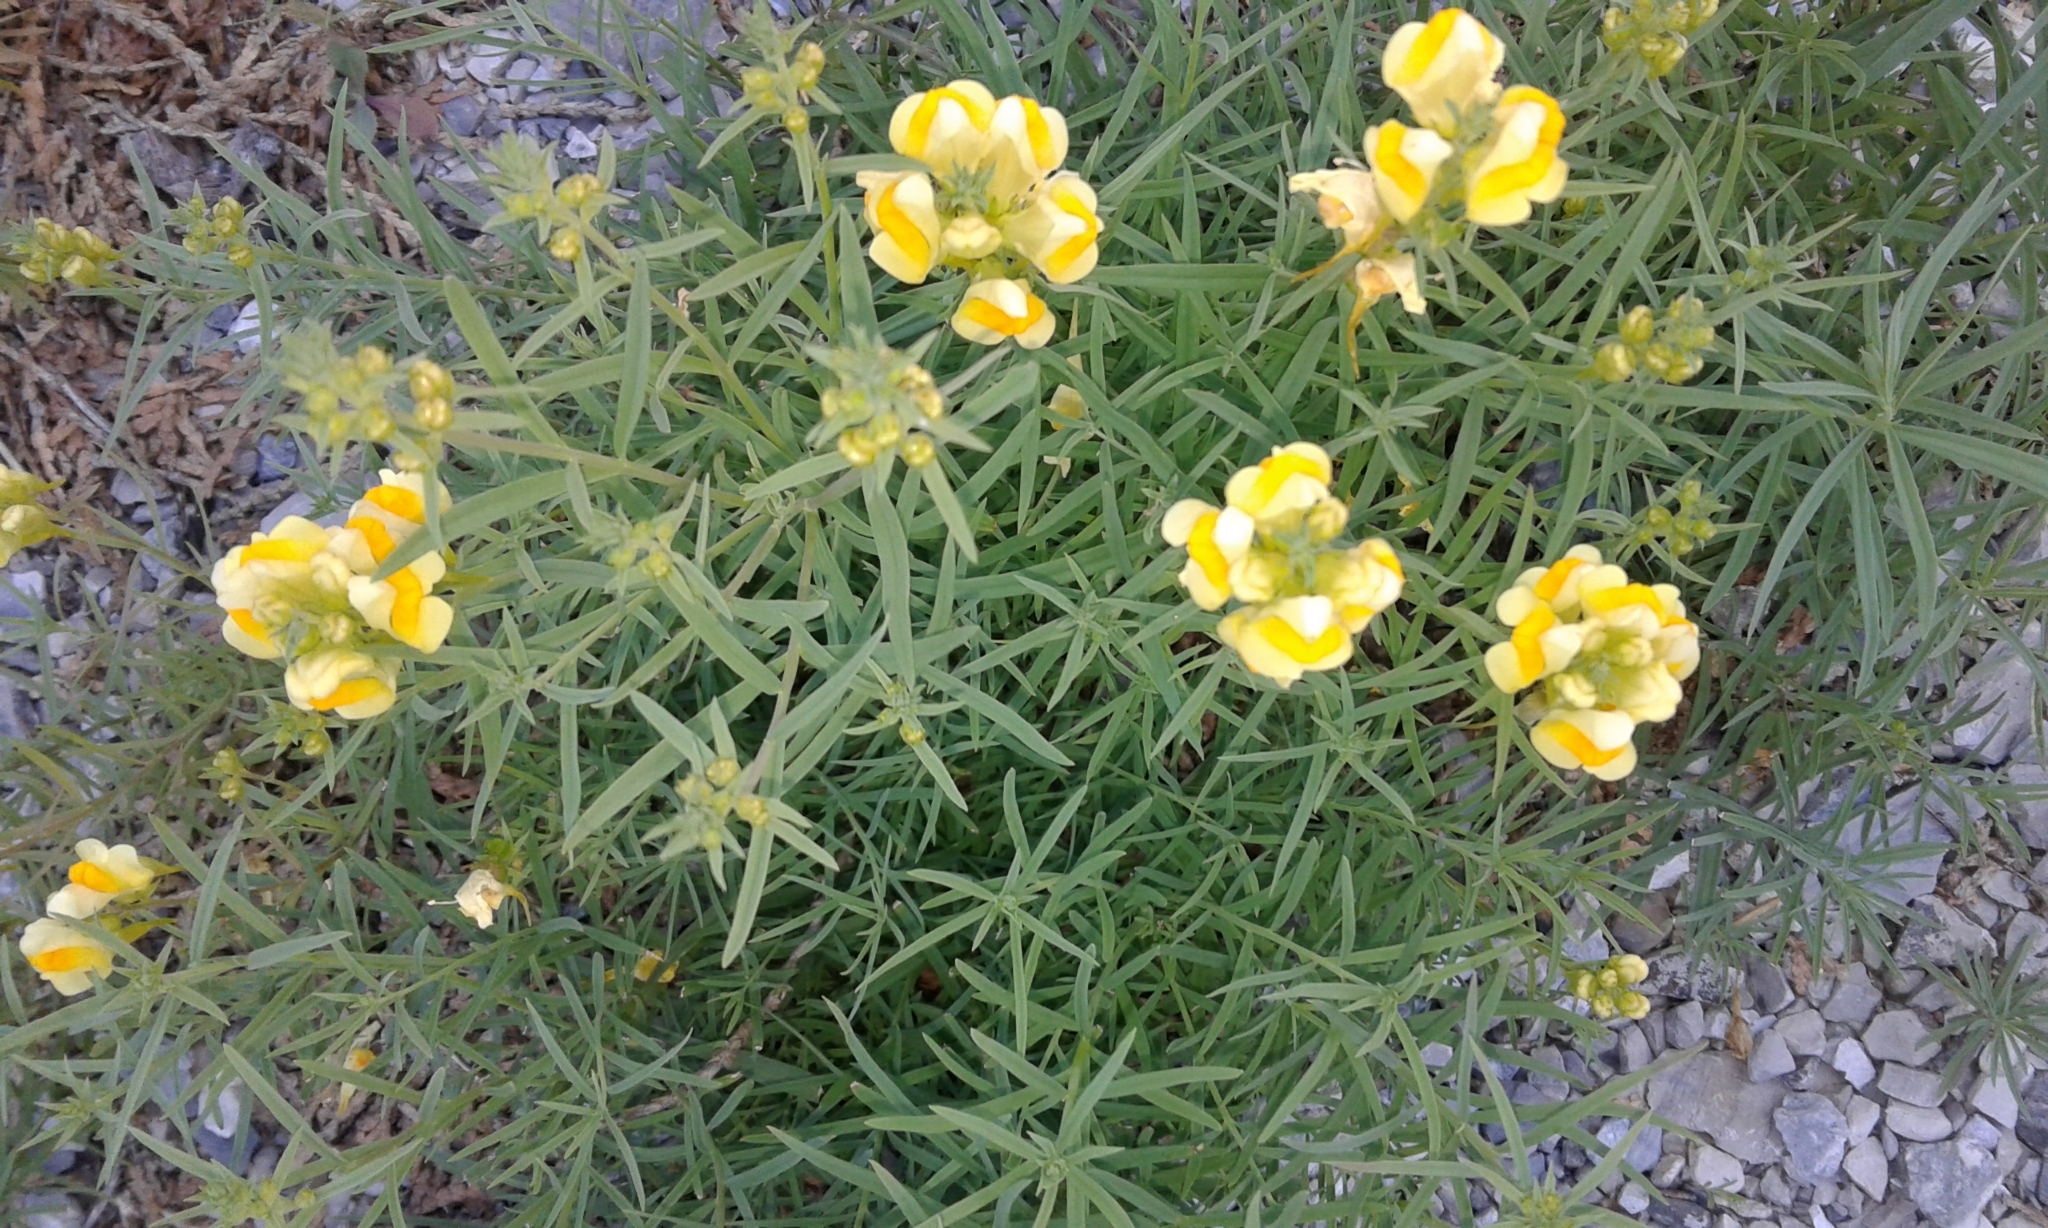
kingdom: Plantae
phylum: Tracheophyta
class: Magnoliopsida
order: Lamiales
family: Plantaginaceae
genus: Linaria
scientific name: Linaria vulgaris
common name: Butter and eggs
